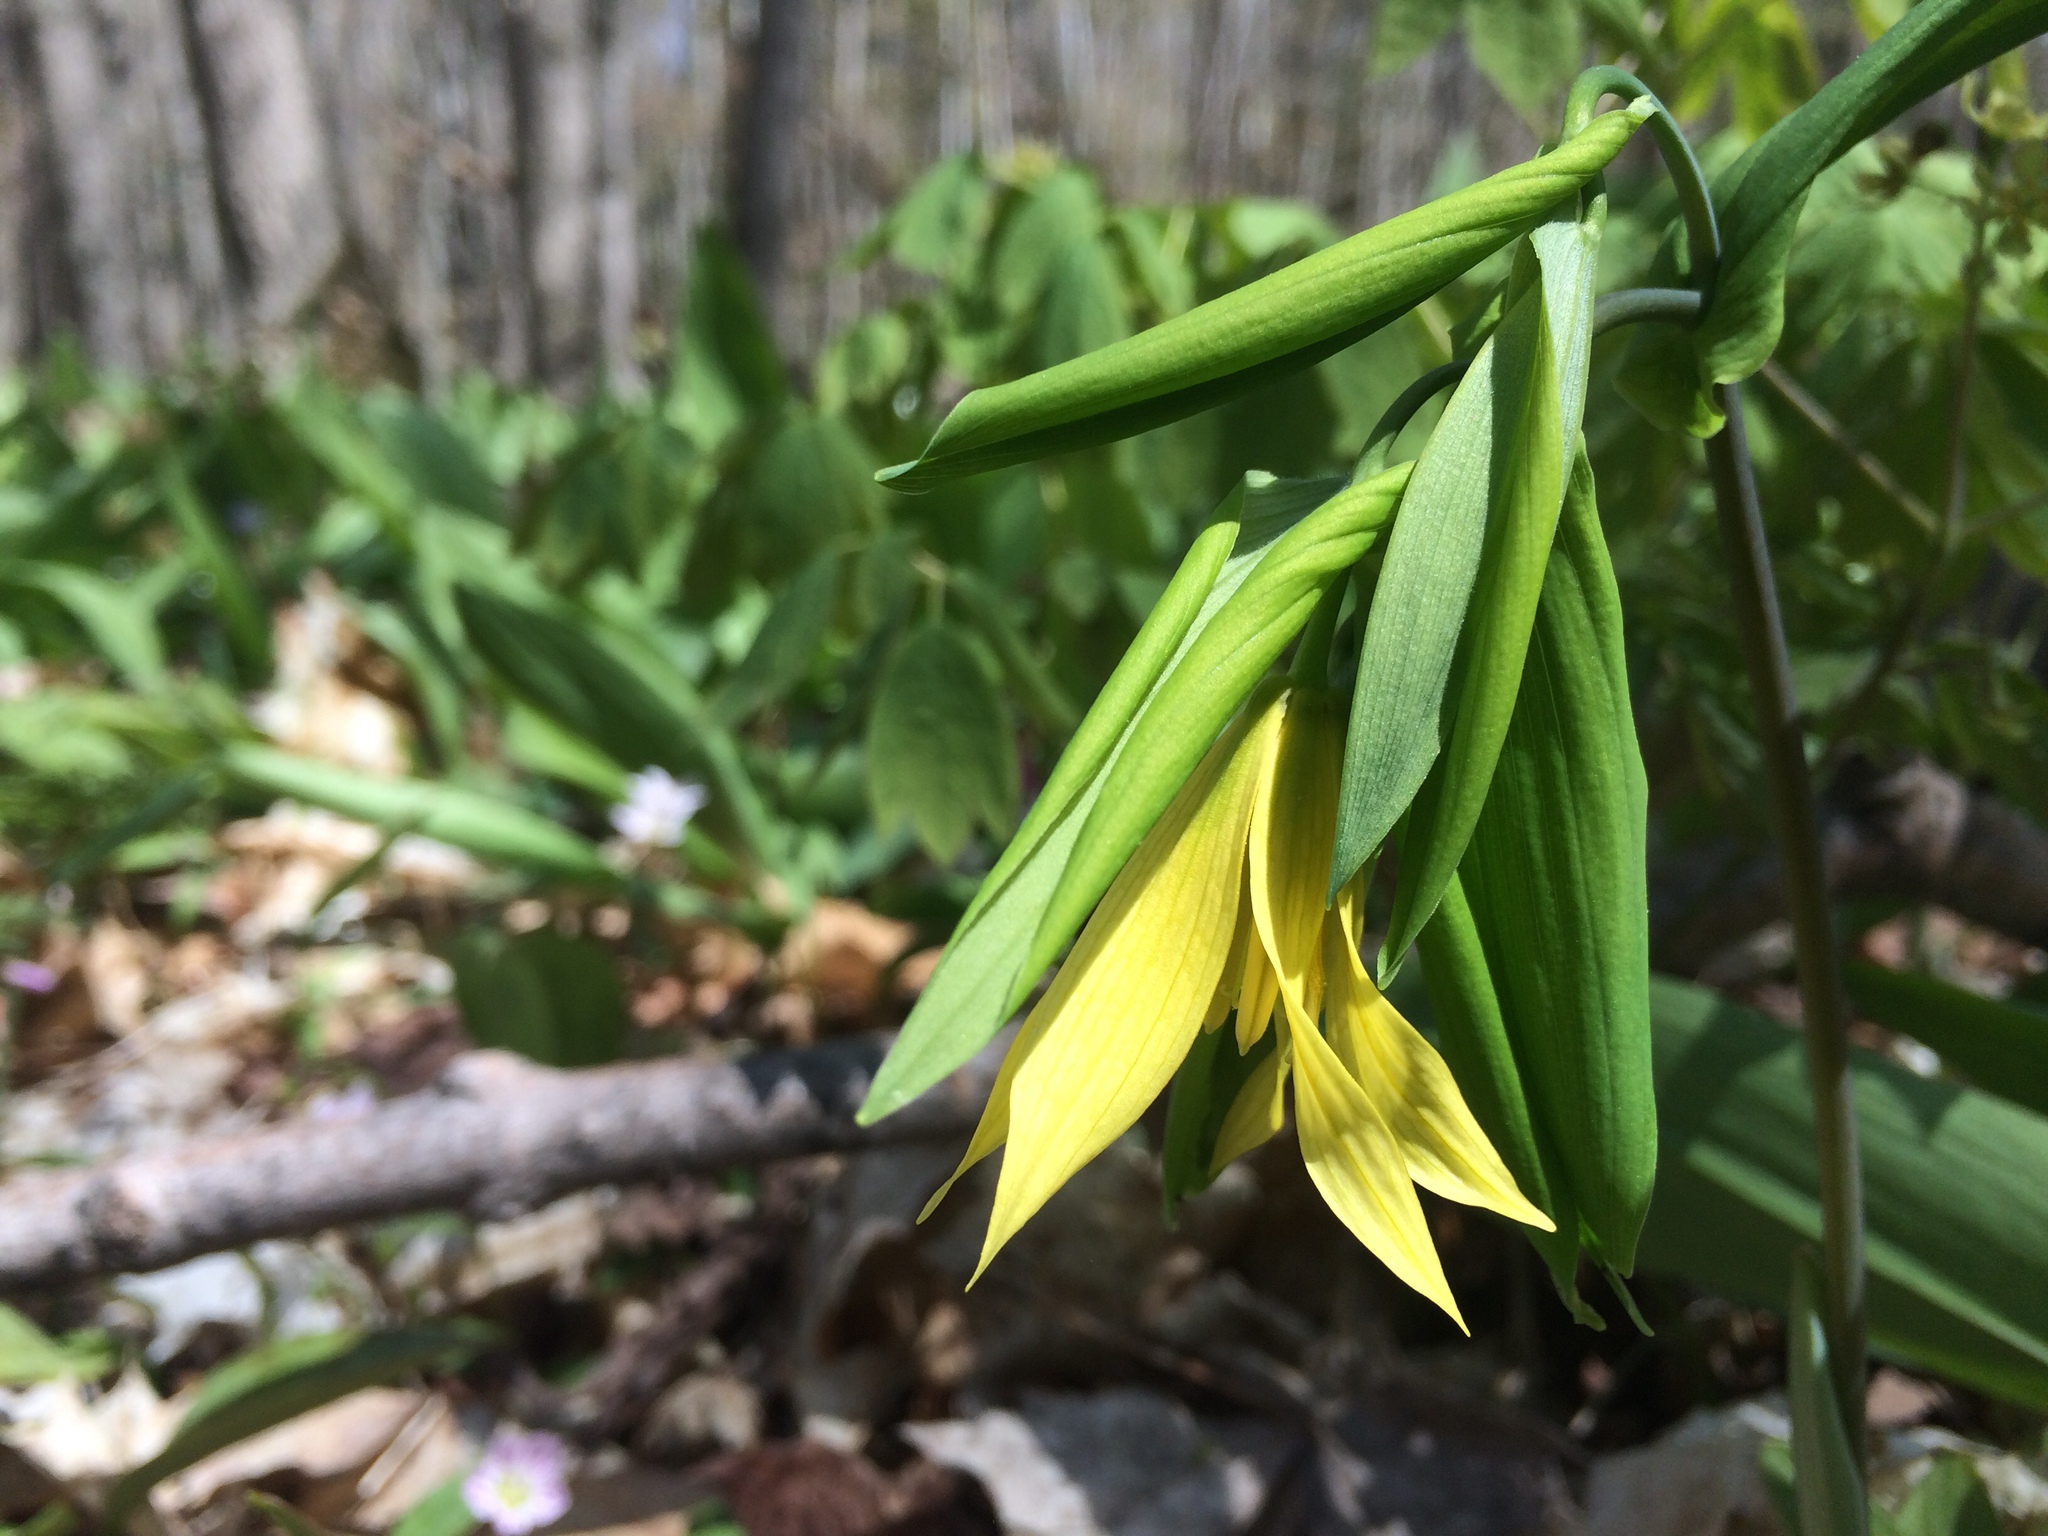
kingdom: Plantae
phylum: Tracheophyta
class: Liliopsida
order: Liliales
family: Colchicaceae
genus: Uvularia
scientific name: Uvularia grandiflora
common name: Bellwort
